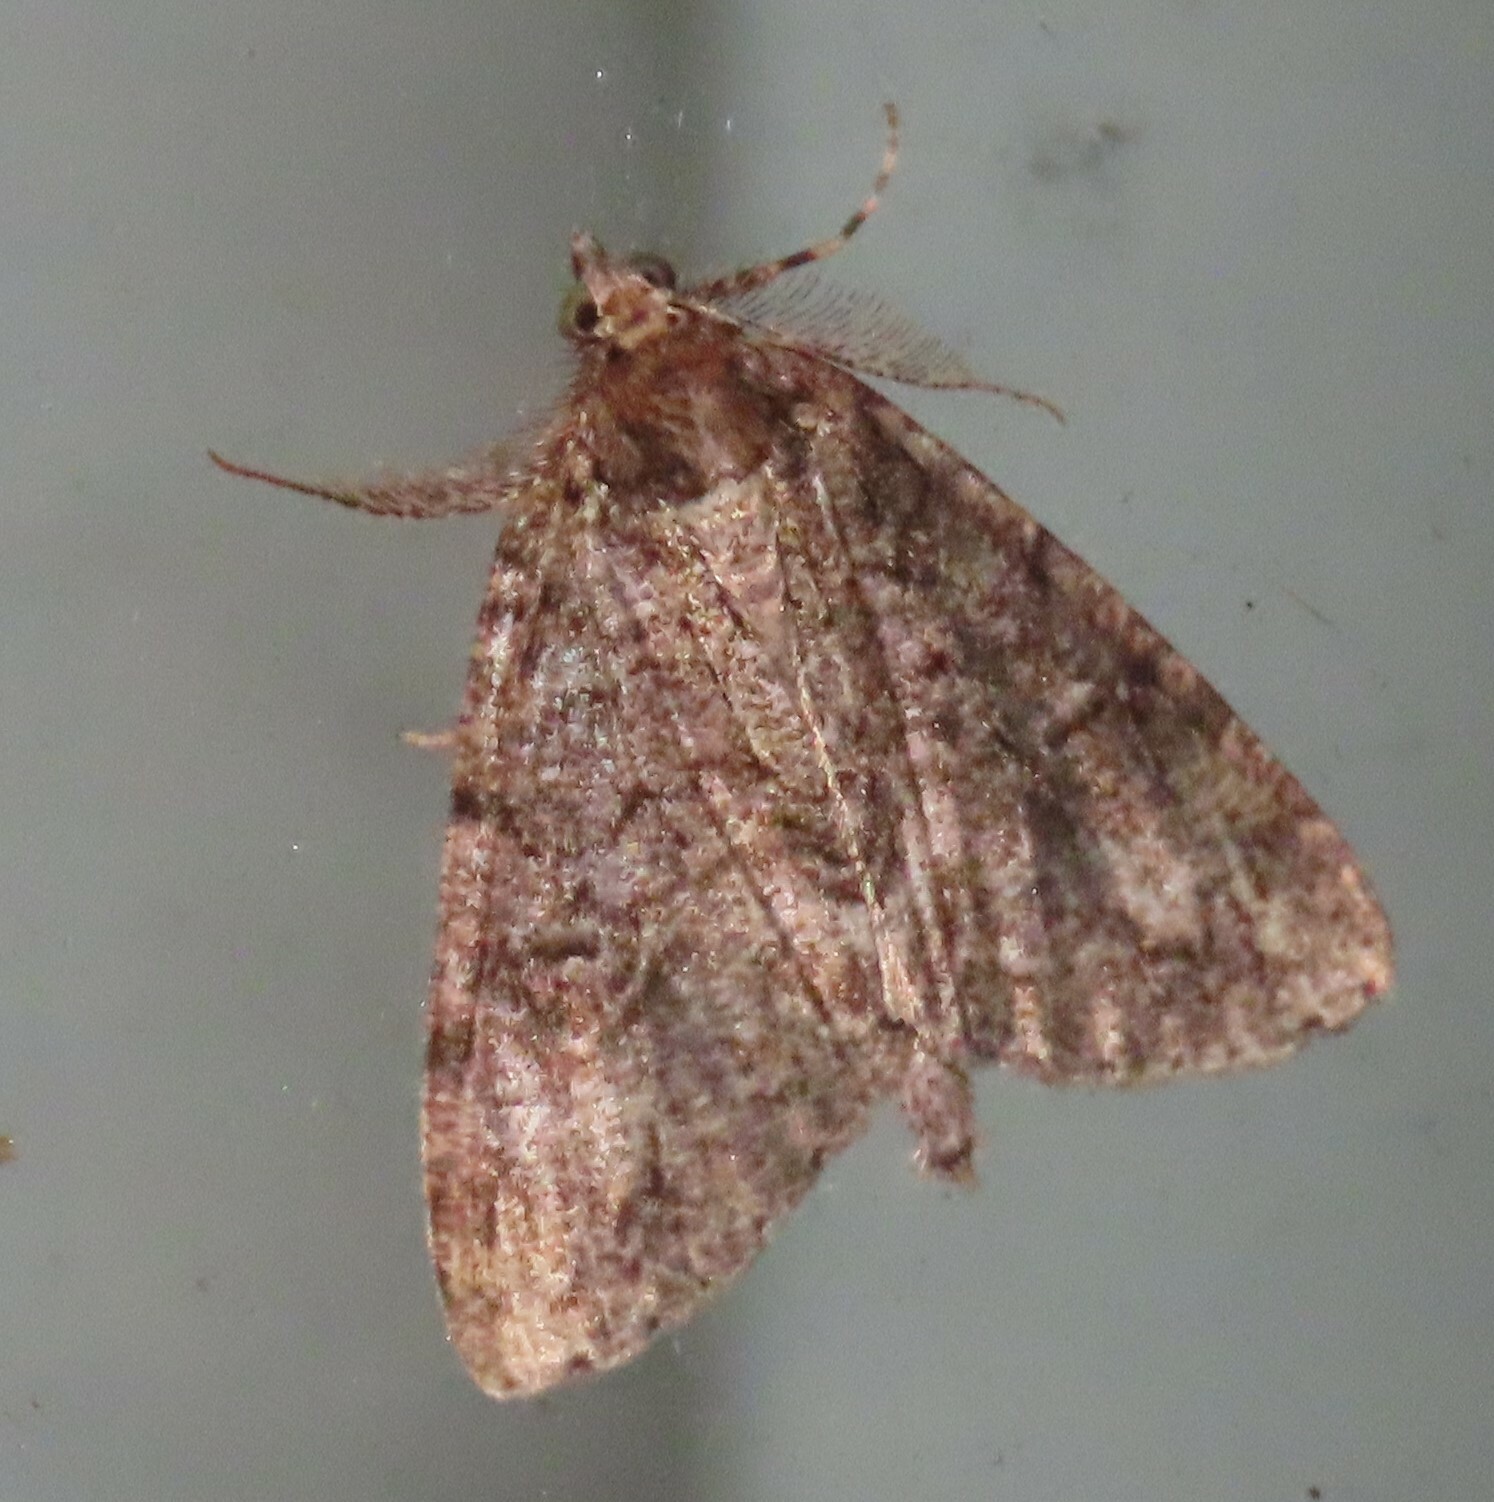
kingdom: Animalia
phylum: Arthropoda
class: Insecta
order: Lepidoptera
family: Geometridae
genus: Pseudocoremia
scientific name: Pseudocoremia suavis
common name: Common forest looper
